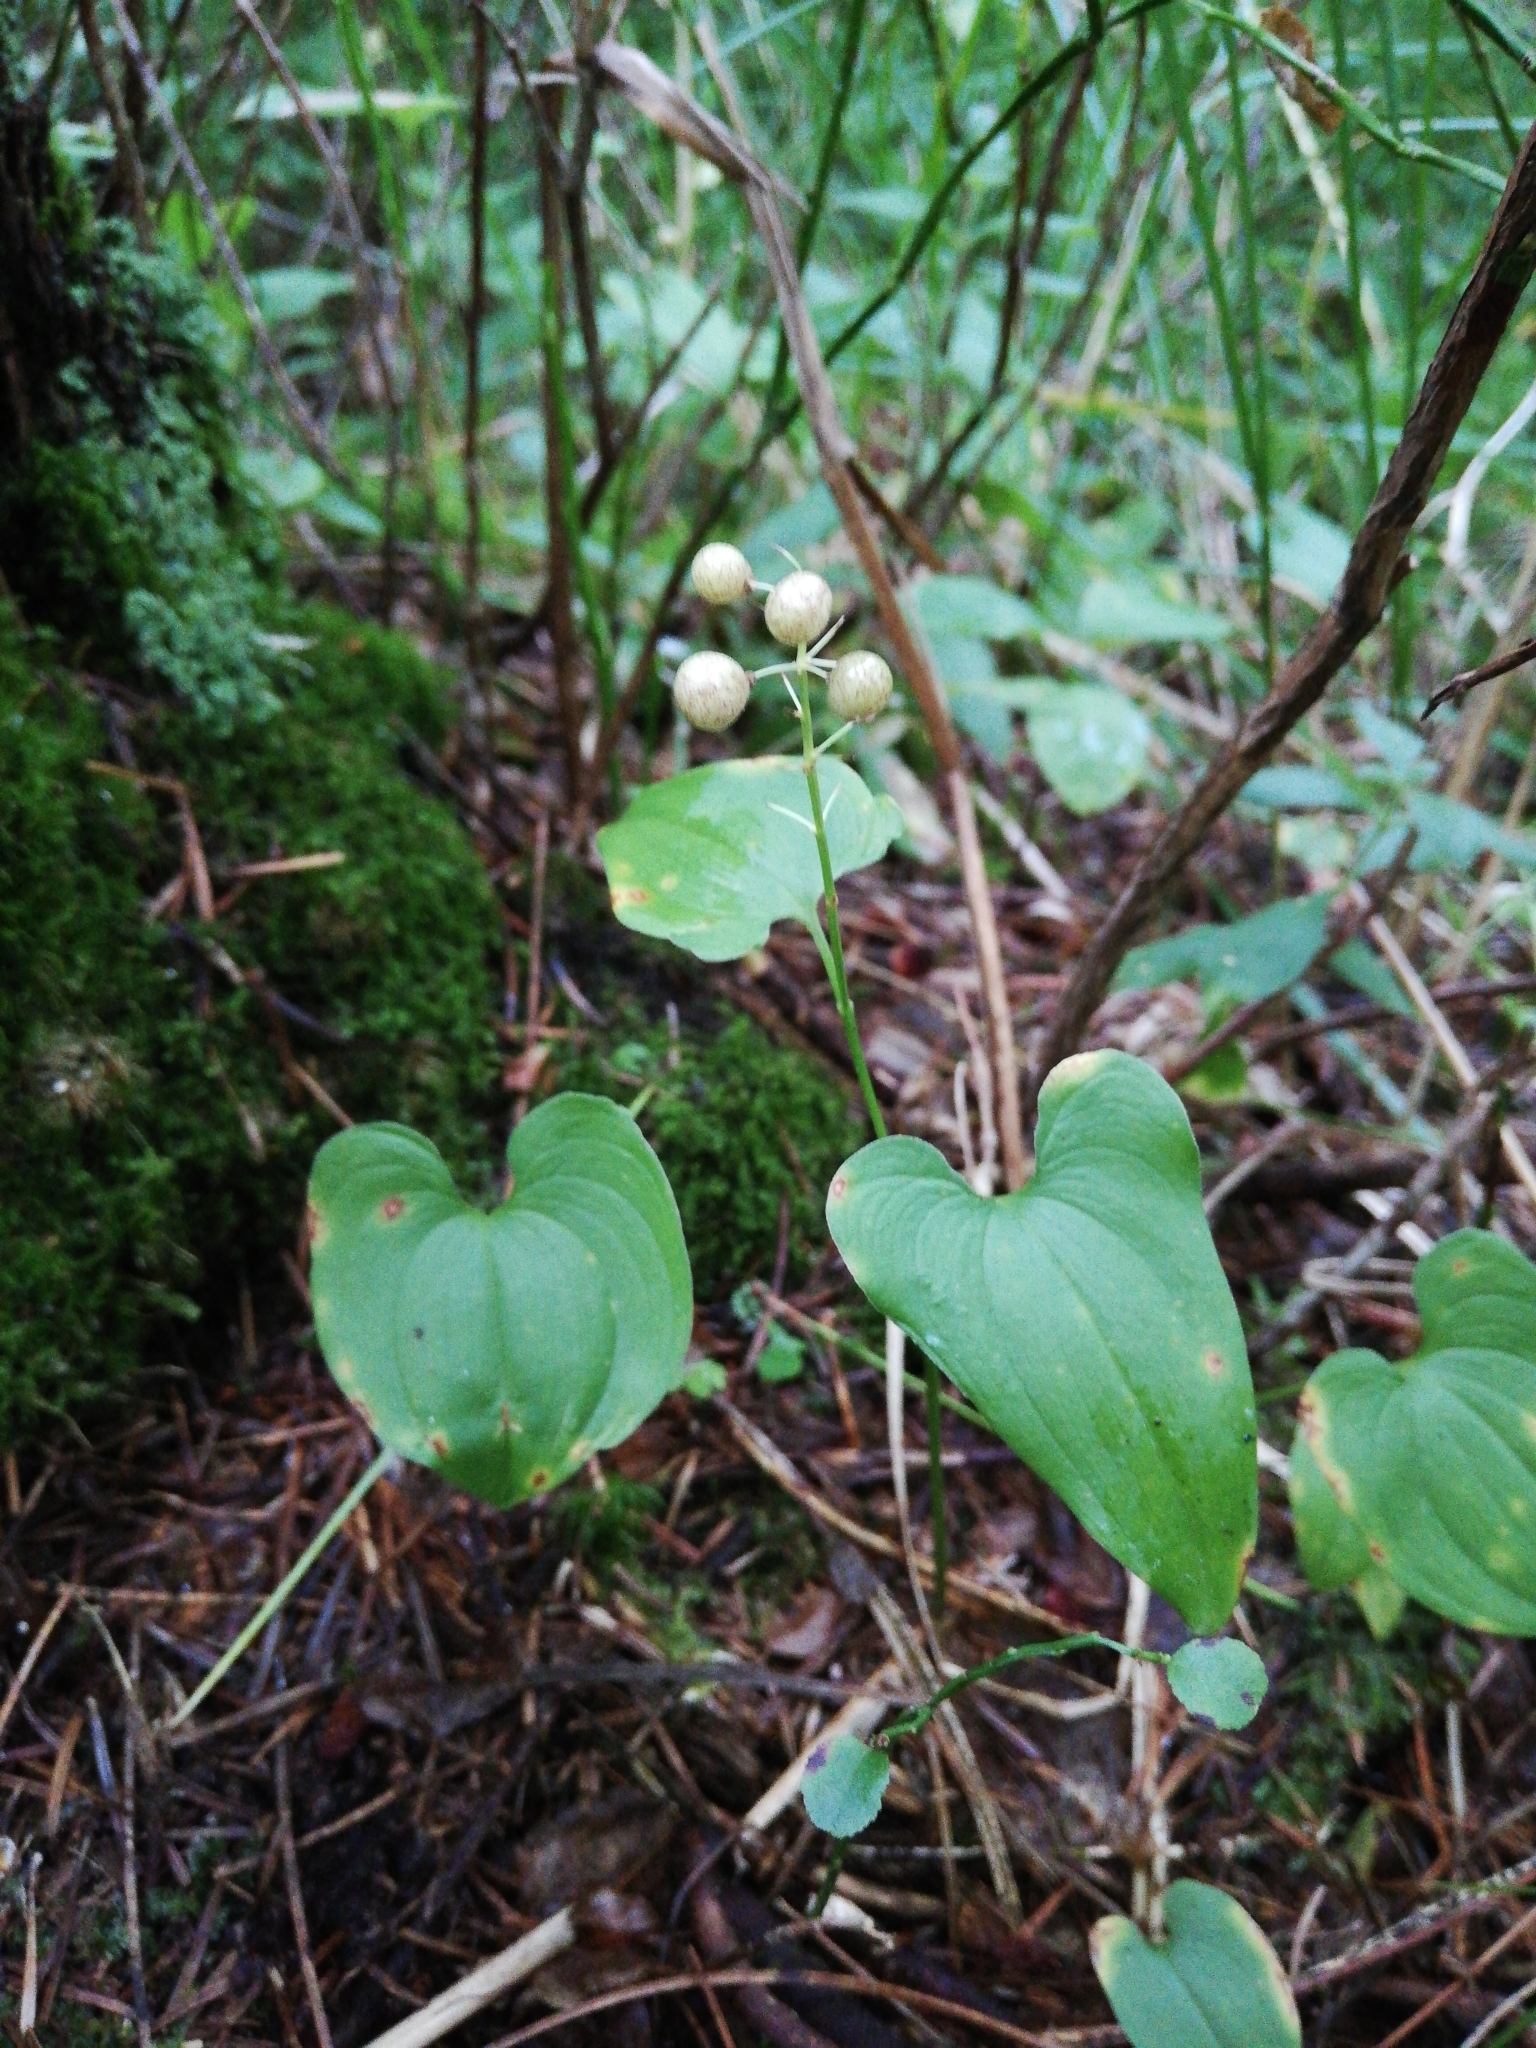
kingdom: Plantae
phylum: Tracheophyta
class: Liliopsida
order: Asparagales
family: Asparagaceae
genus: Maianthemum
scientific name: Maianthemum bifolium
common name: May lily
